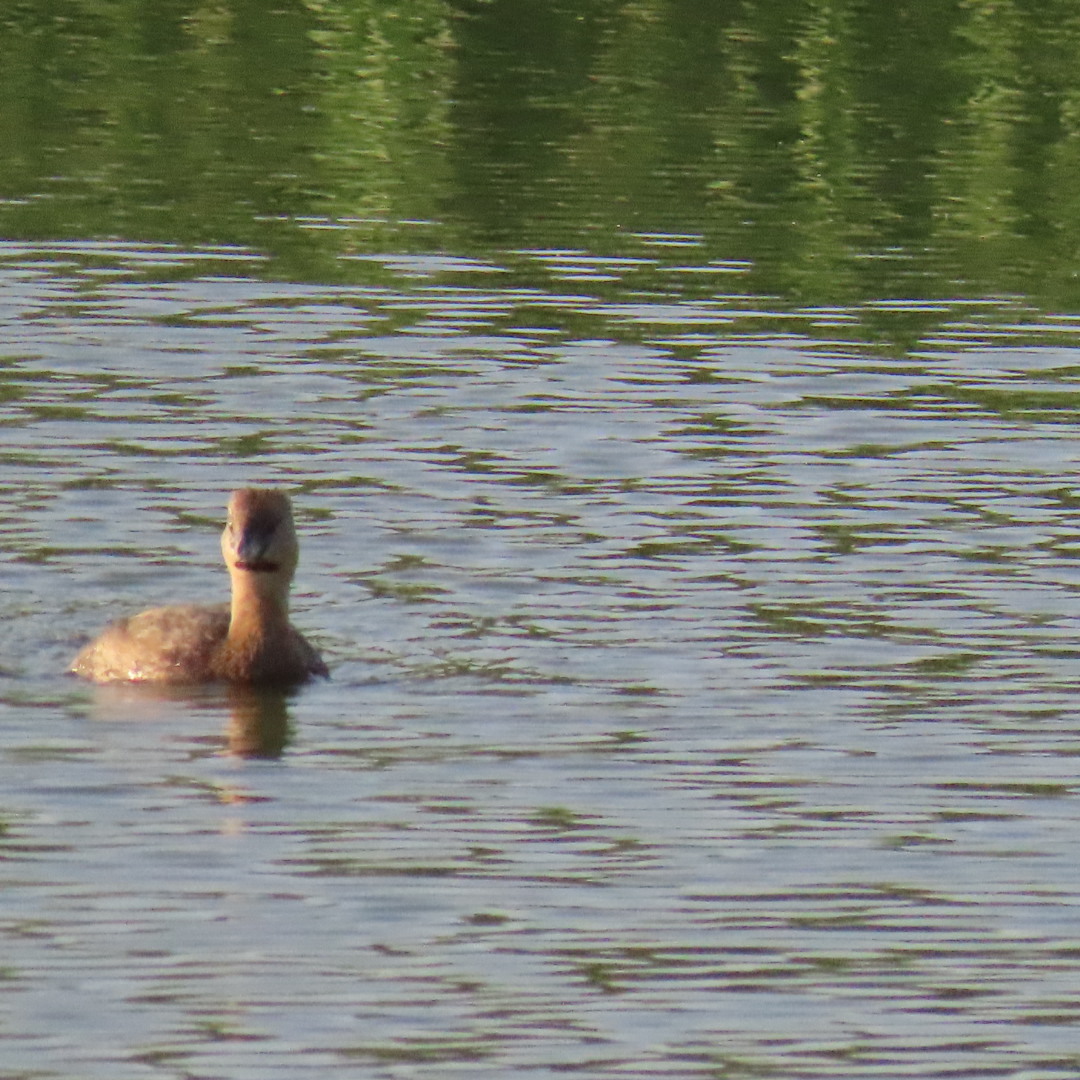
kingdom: Animalia
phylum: Chordata
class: Aves
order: Podicipediformes
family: Podicipedidae
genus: Podilymbus
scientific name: Podilymbus podiceps
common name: Pied-billed grebe
